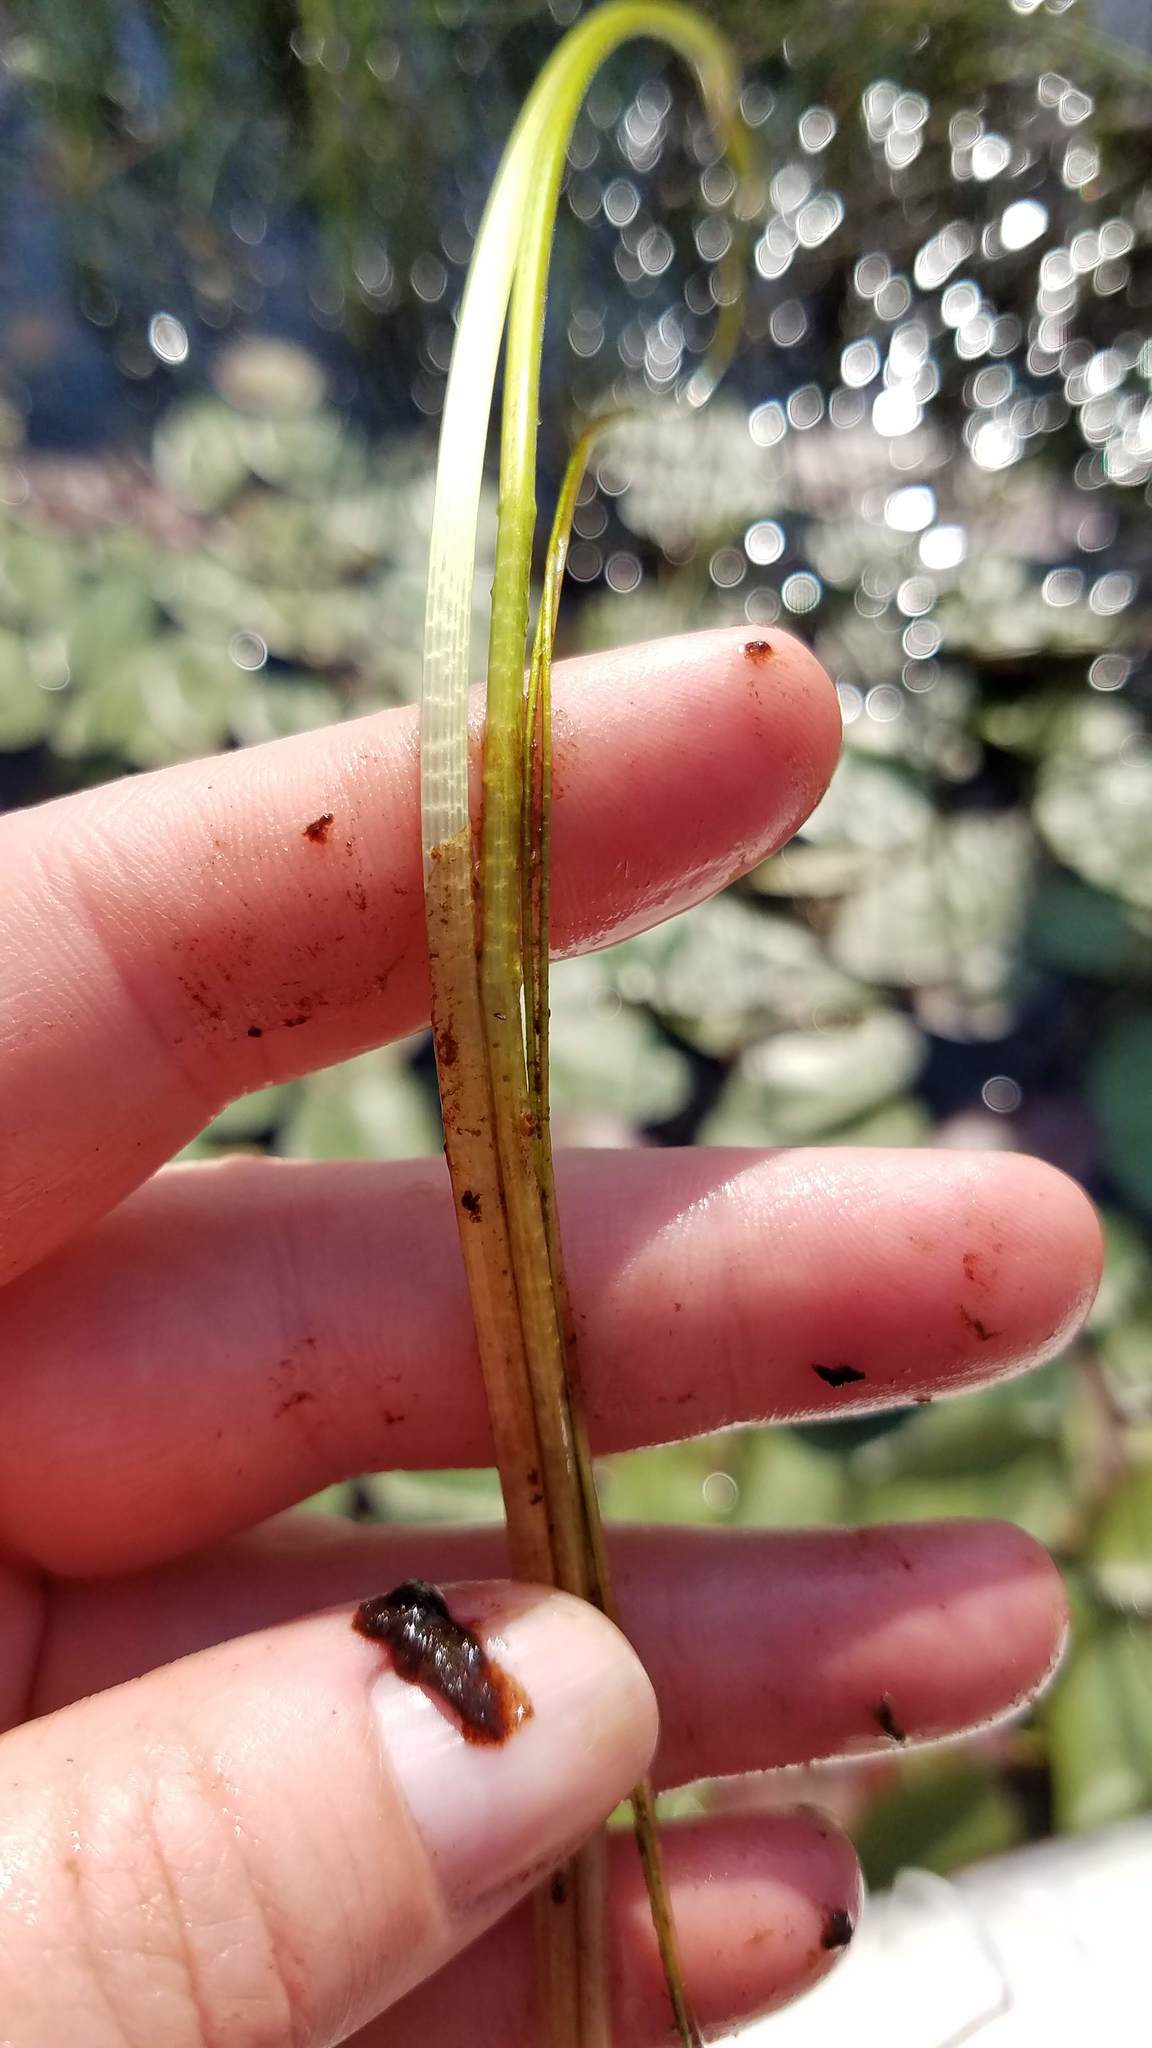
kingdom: Plantae
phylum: Tracheophyta
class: Liliopsida
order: Poales
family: Cyperaceae
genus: Eleocharis
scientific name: Eleocharis robbinsii
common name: Robbins' spikerush
